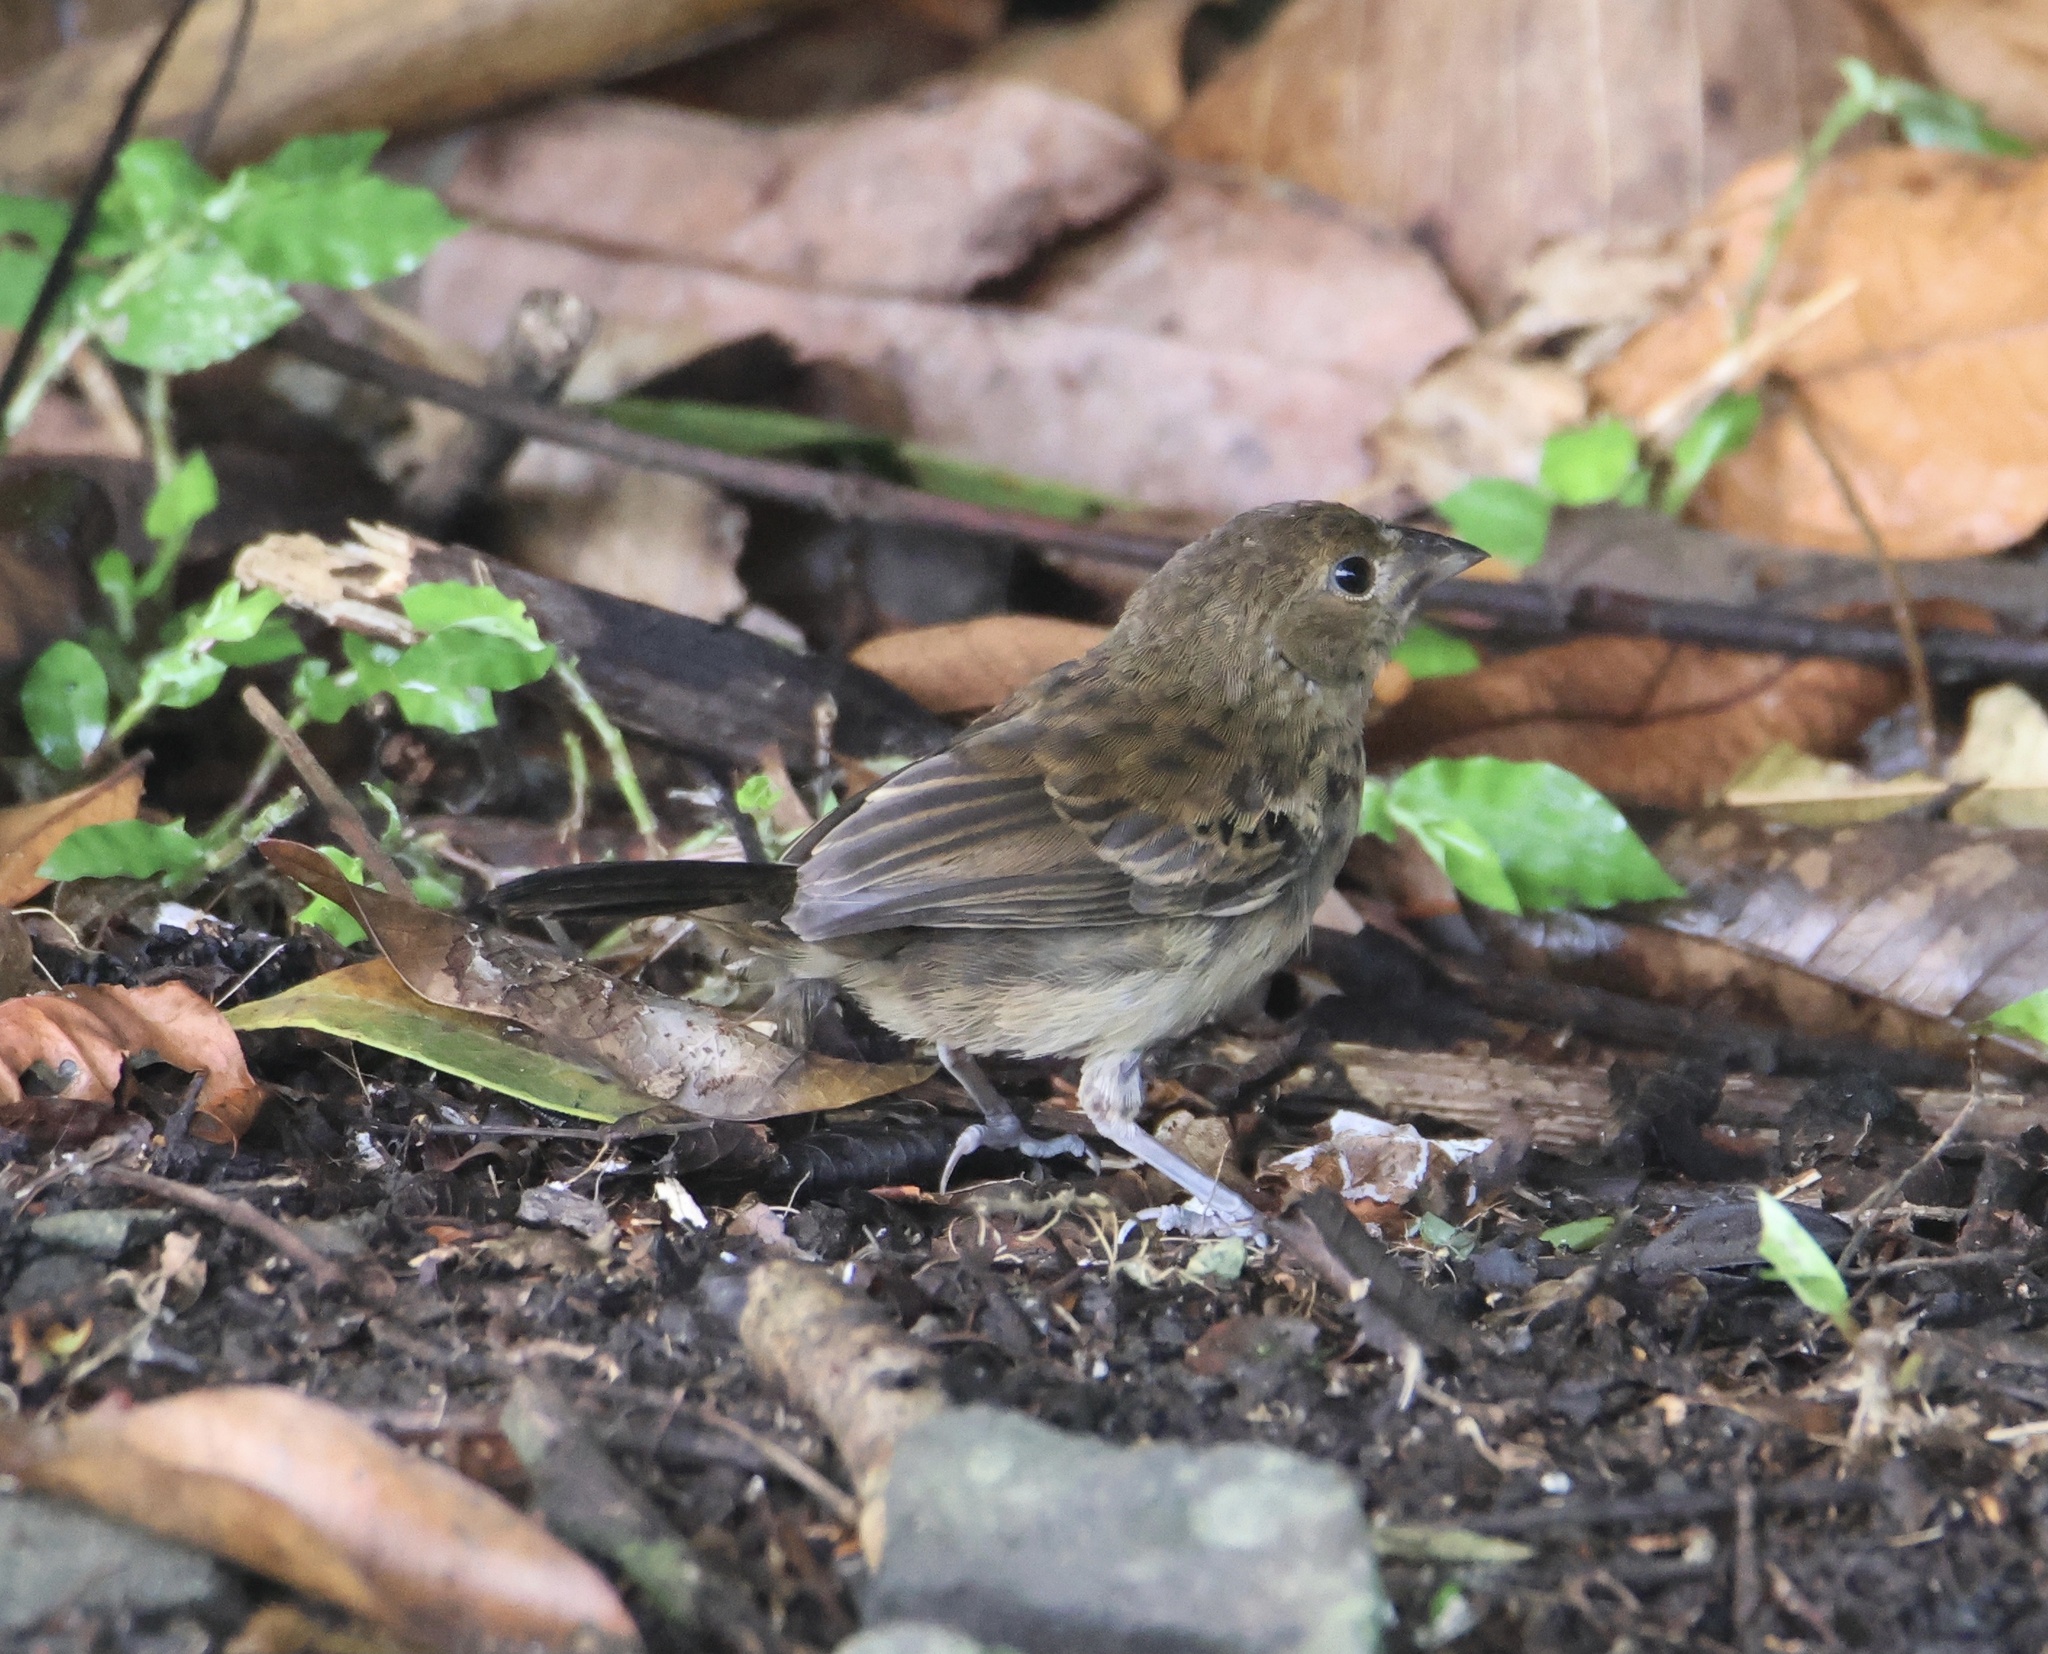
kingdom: Animalia
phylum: Chordata
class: Aves
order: Passeriformes
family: Thraupidae
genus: Volatinia
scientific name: Volatinia jacarina
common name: Blue-black grassquit
